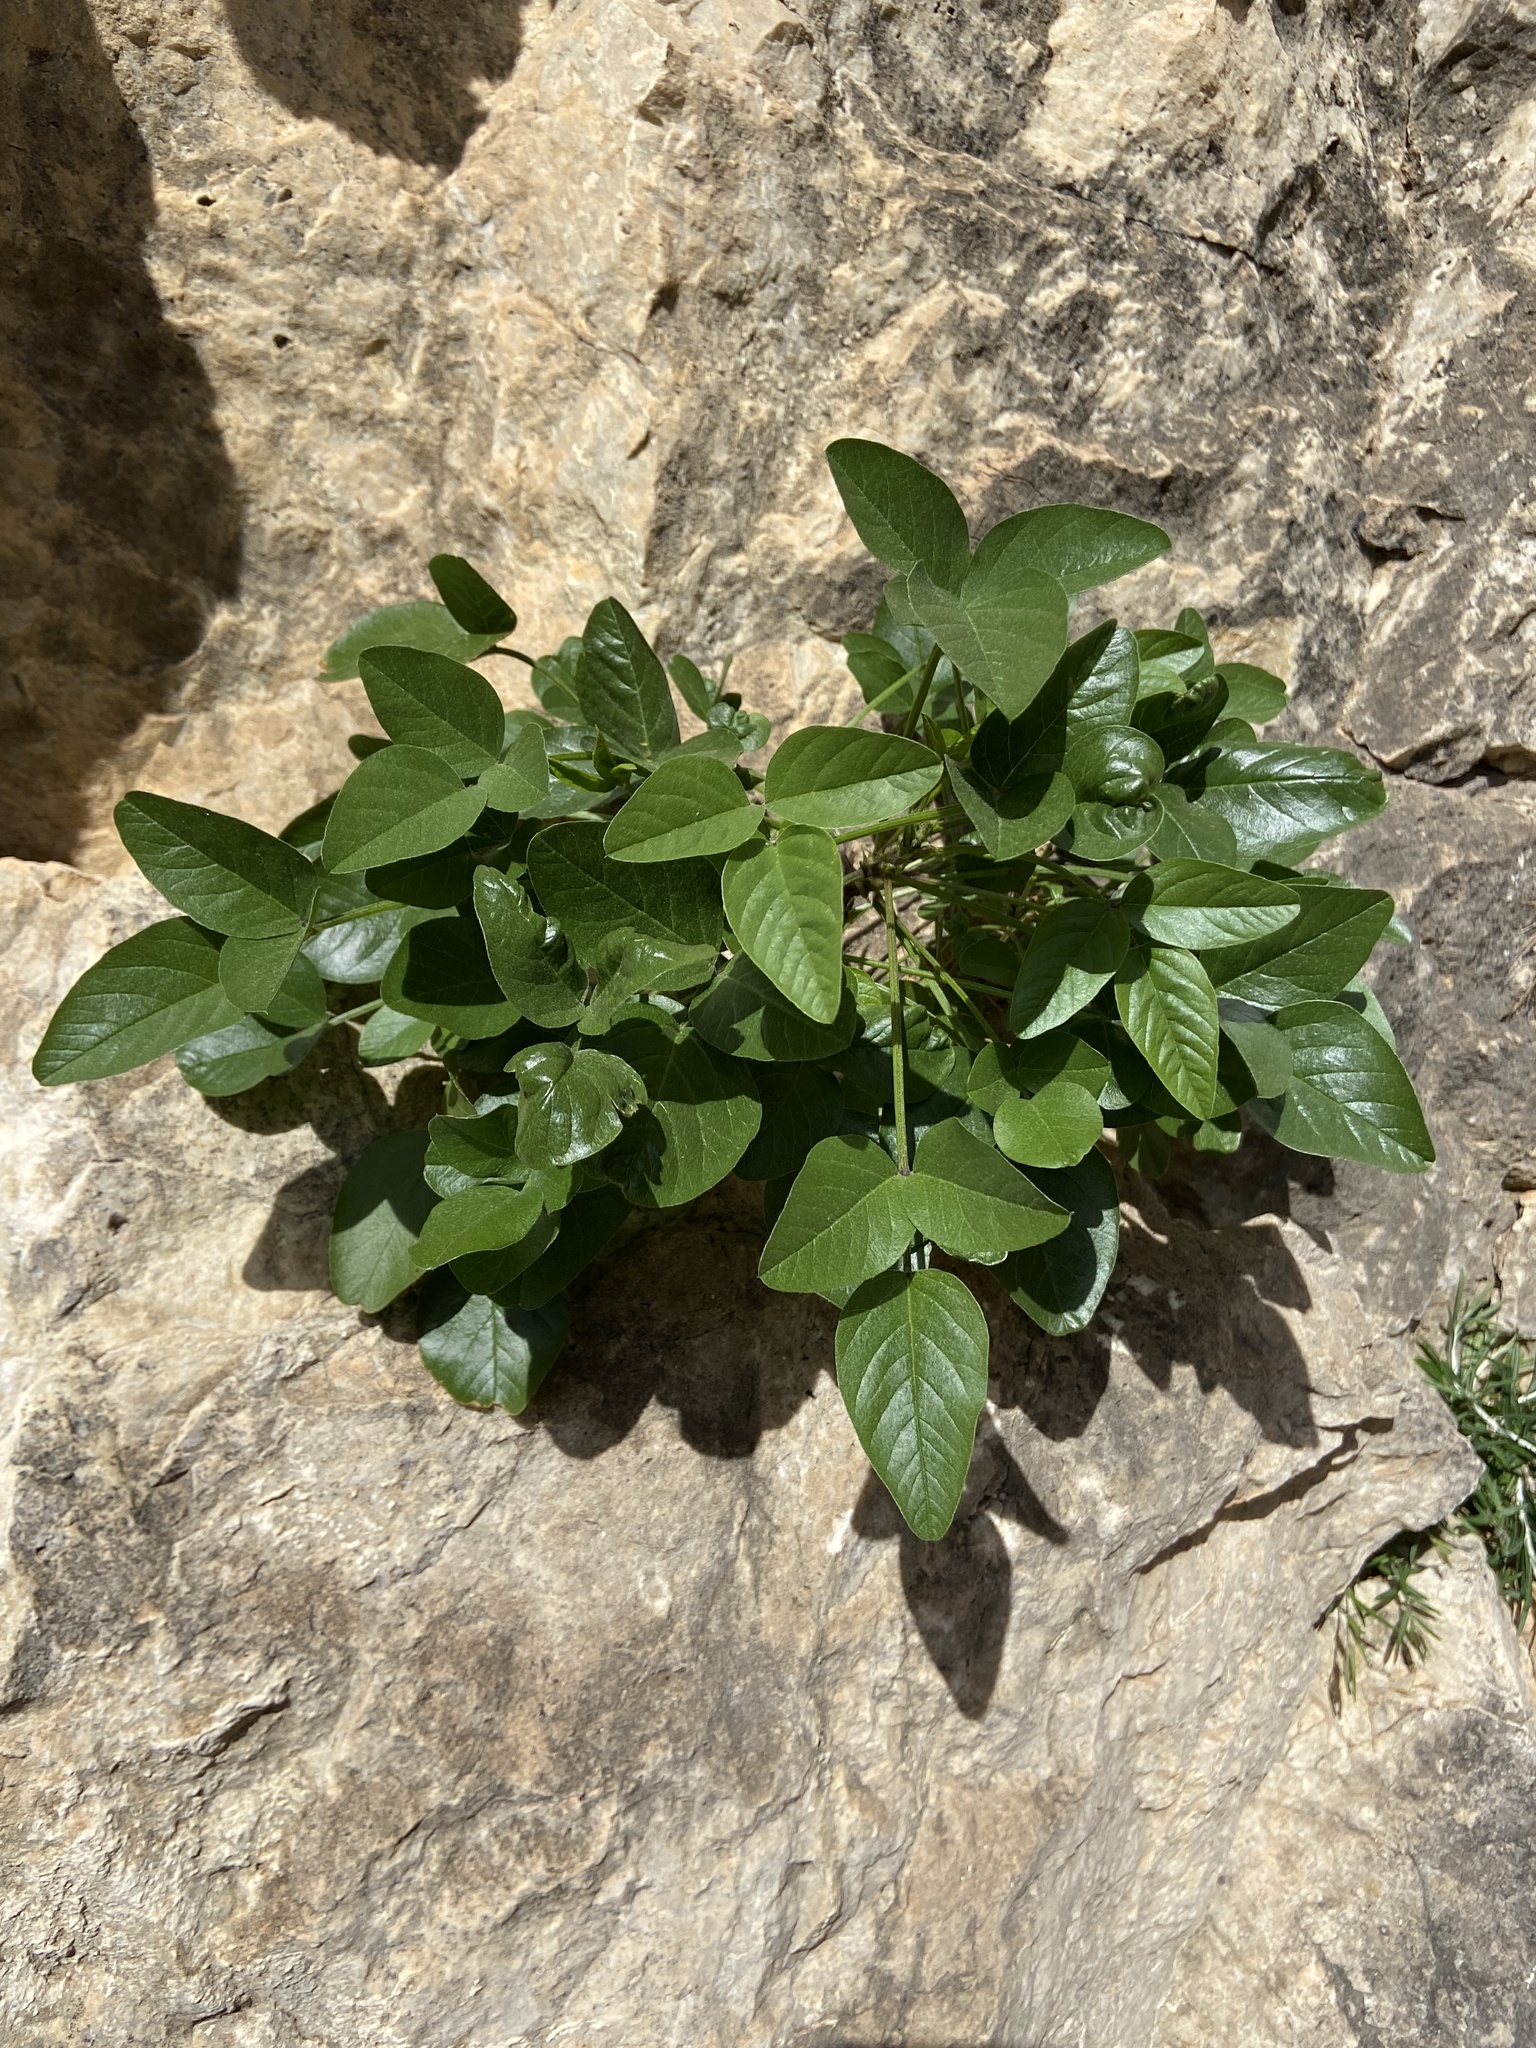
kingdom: Plantae
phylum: Tracheophyta
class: Magnoliopsida
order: Fabales
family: Fabaceae
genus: Bituminaria
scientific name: Bituminaria bituminosa
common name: Arabian pea
